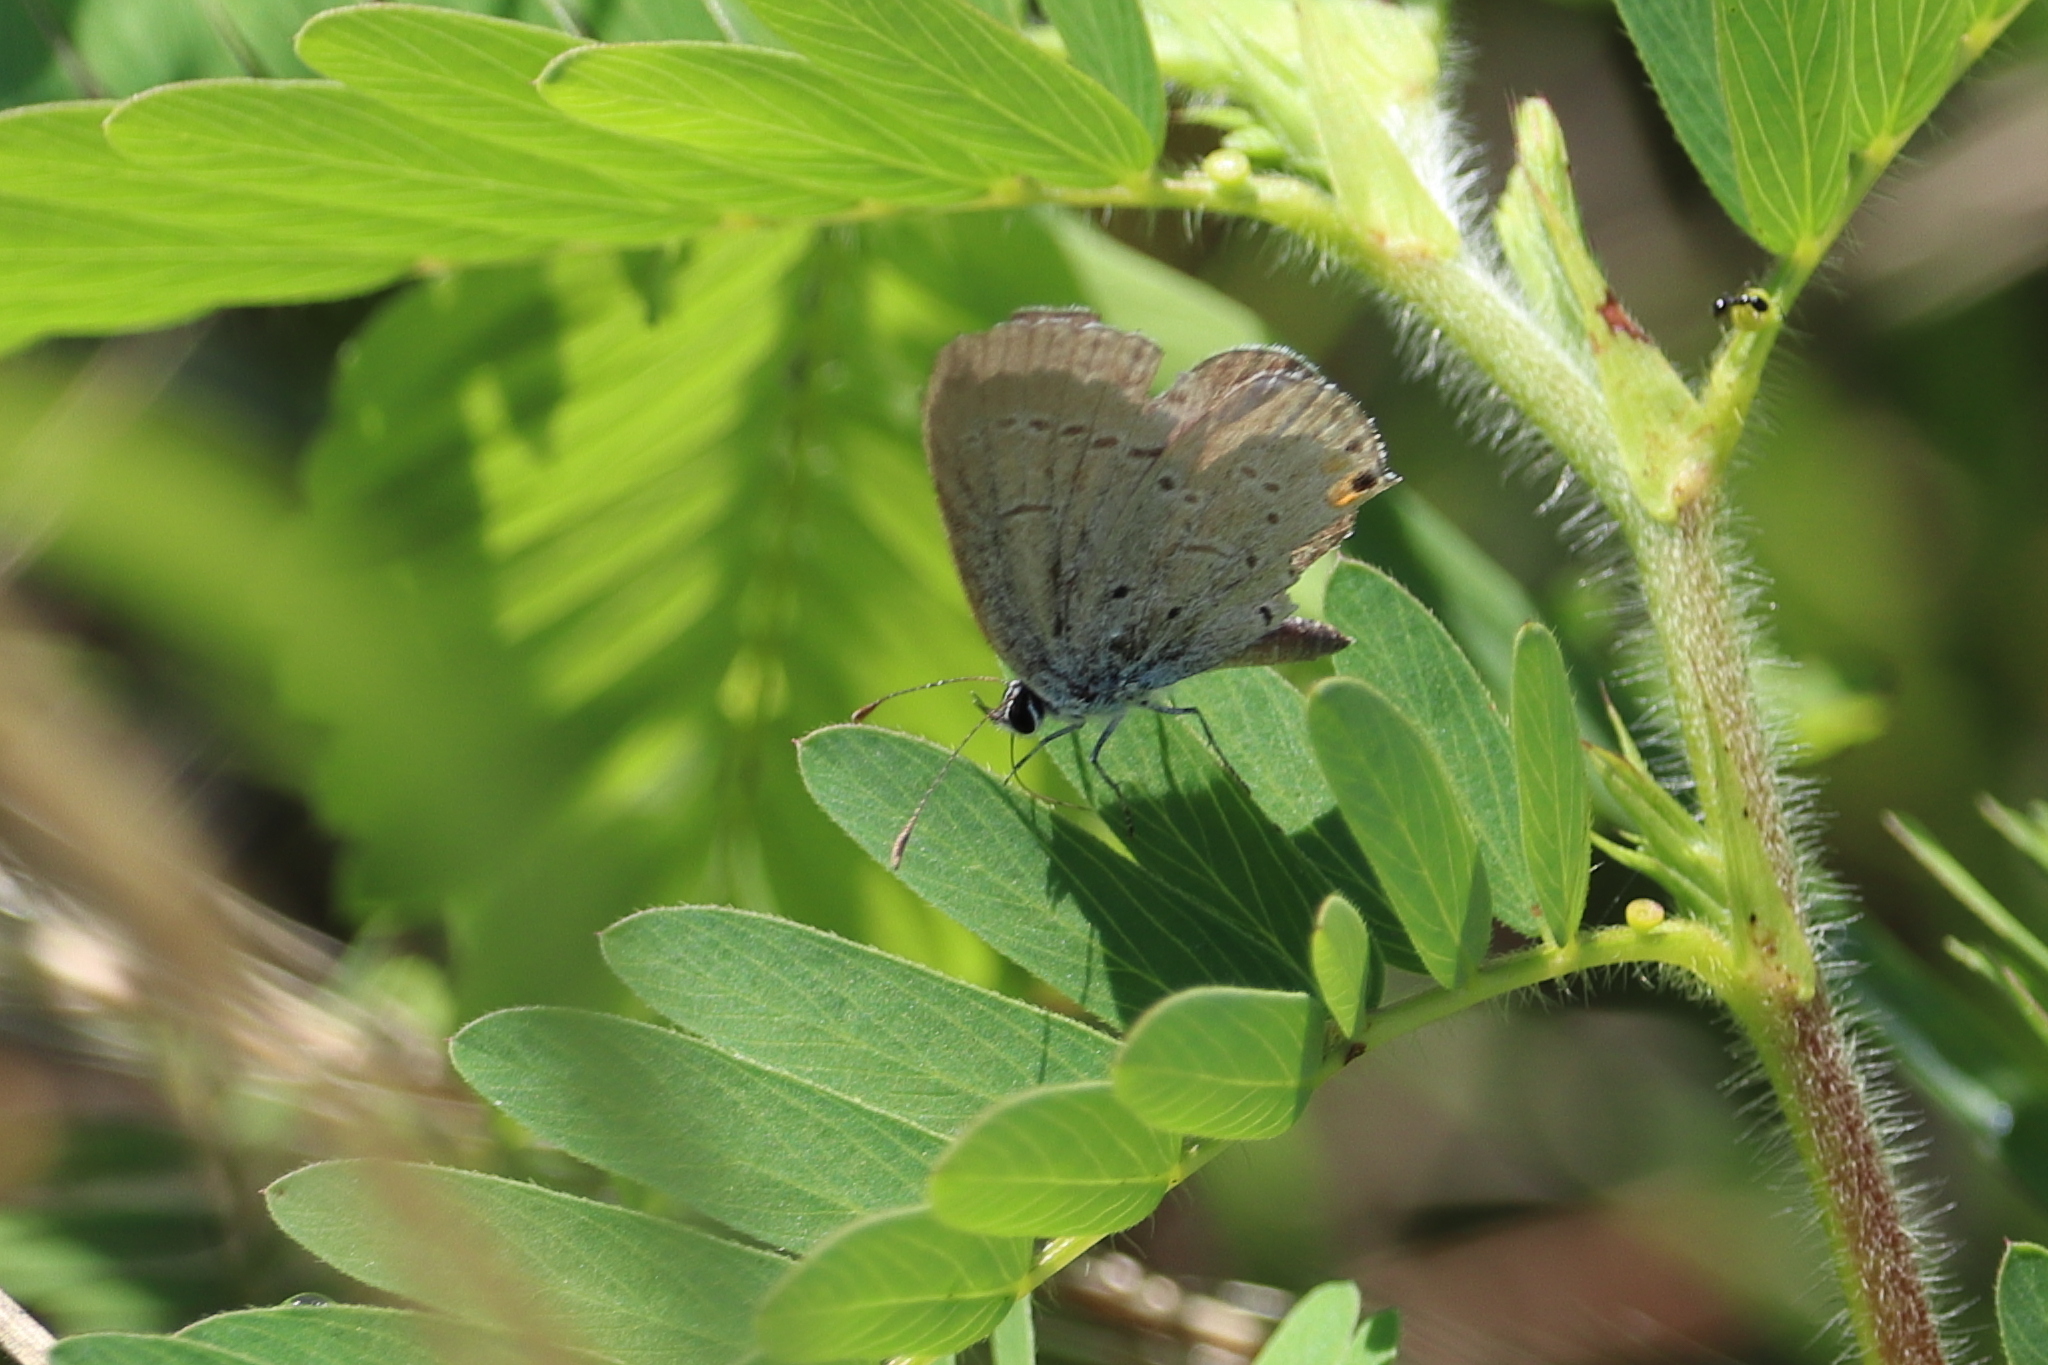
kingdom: Animalia
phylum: Arthropoda
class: Insecta
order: Lepidoptera
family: Lycaenidae
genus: Elkalyce
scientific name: Elkalyce comyntas
